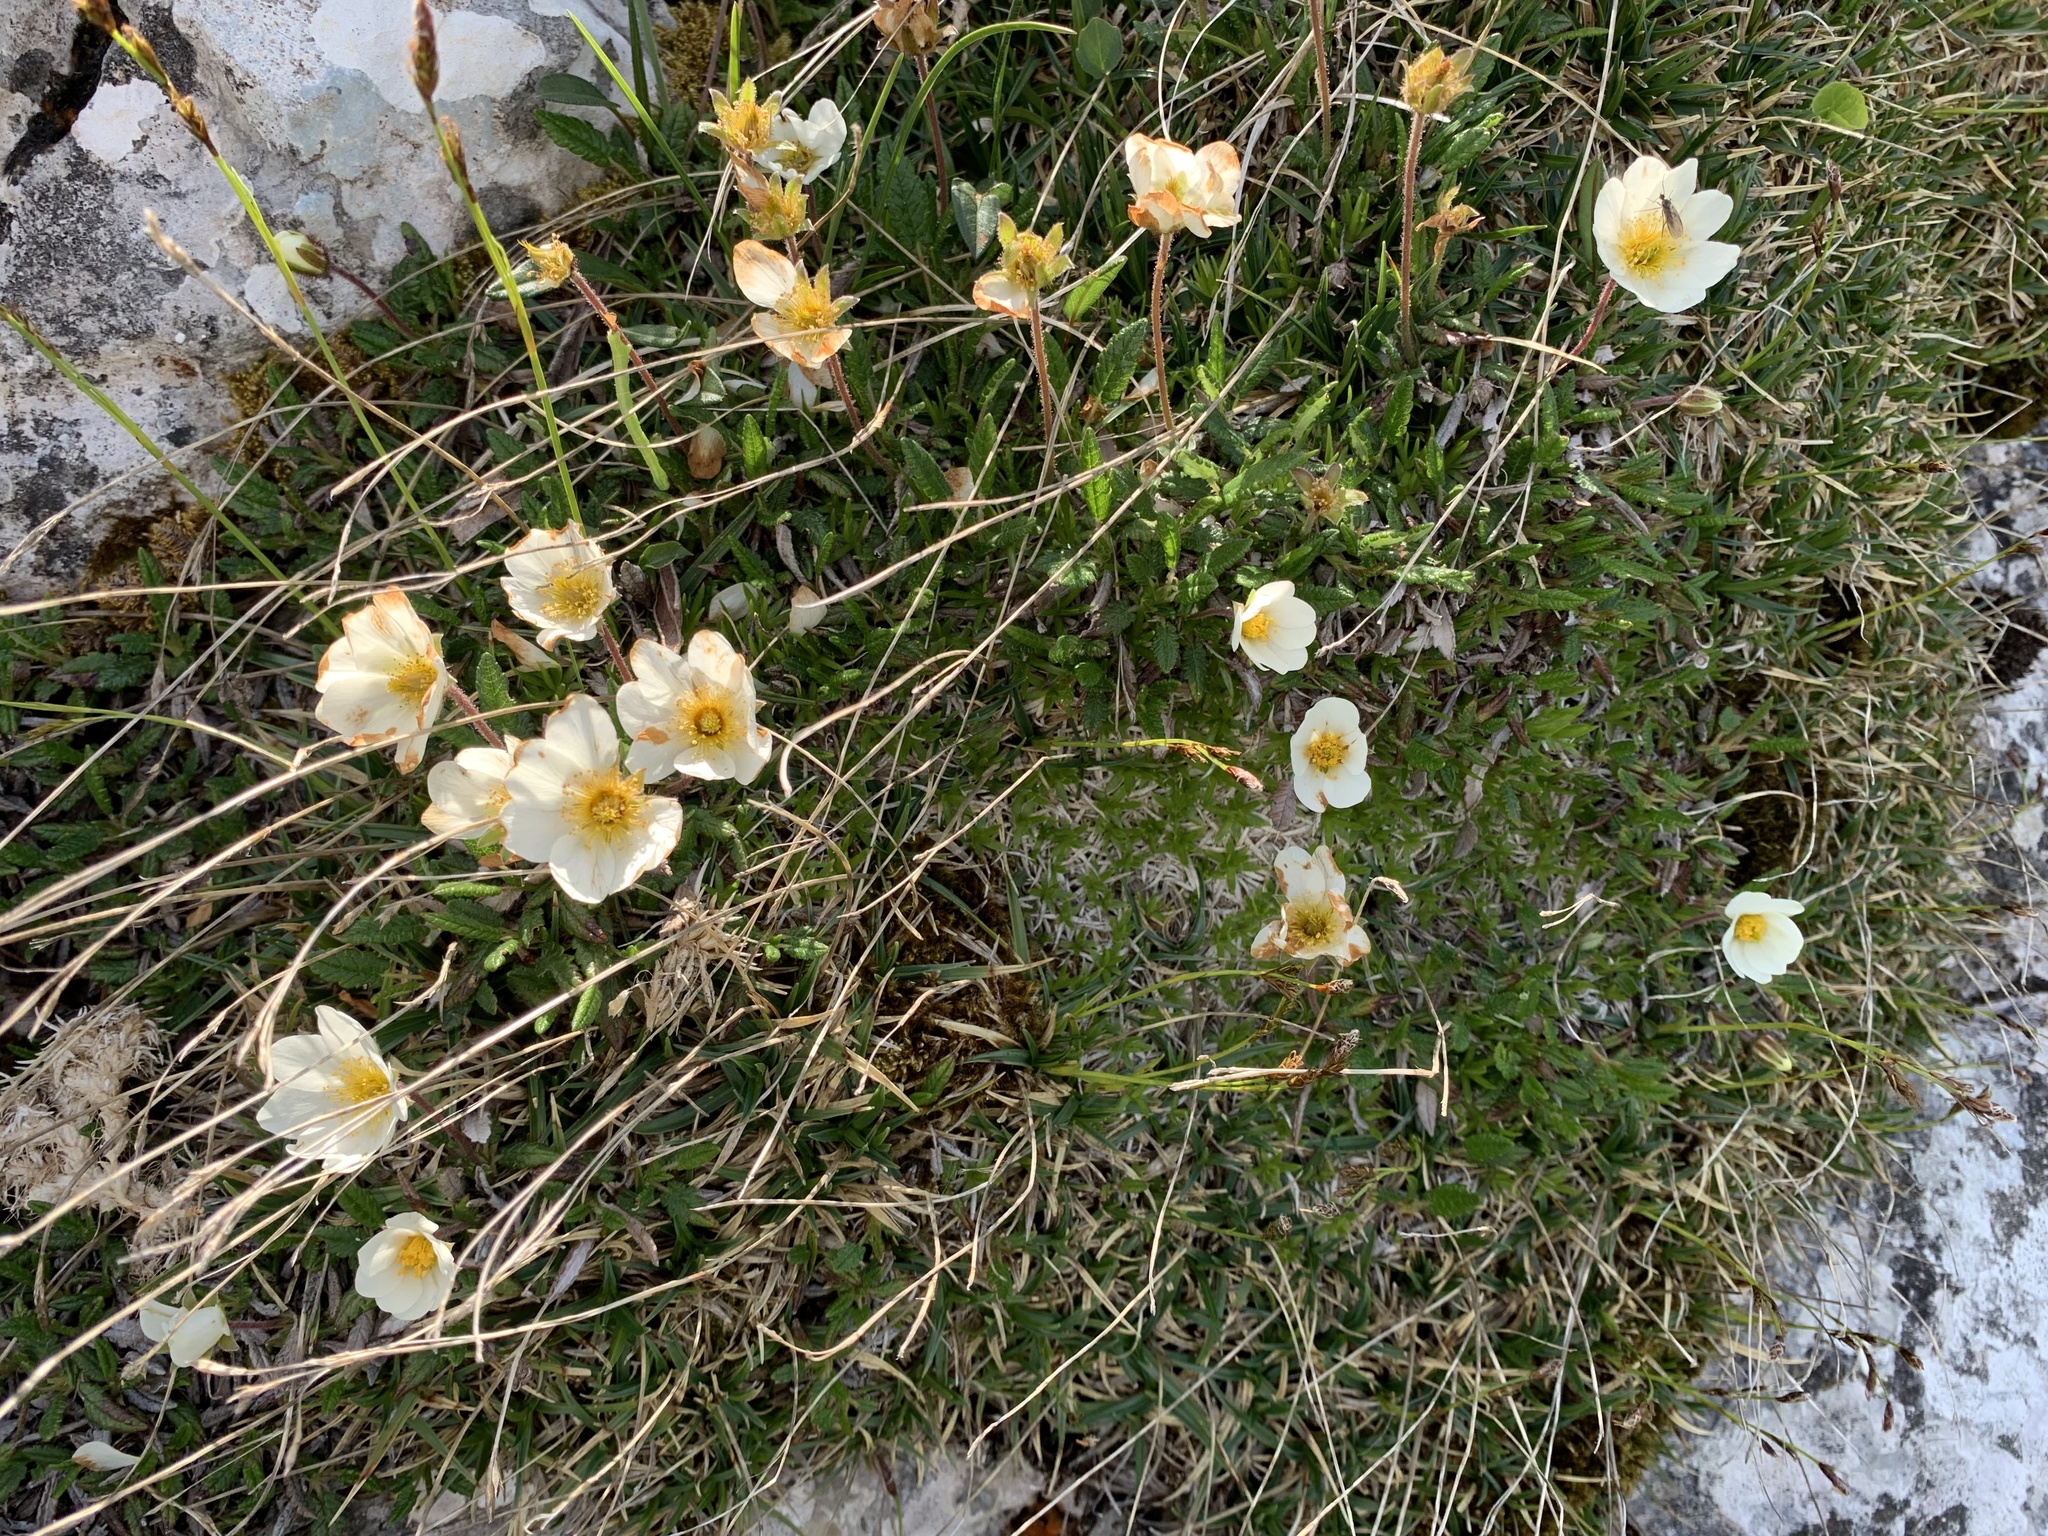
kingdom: Plantae
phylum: Tracheophyta
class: Magnoliopsida
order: Rosales
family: Rosaceae
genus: Dryas
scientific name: Dryas octopetala
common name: Eight-petal mountain-avens
